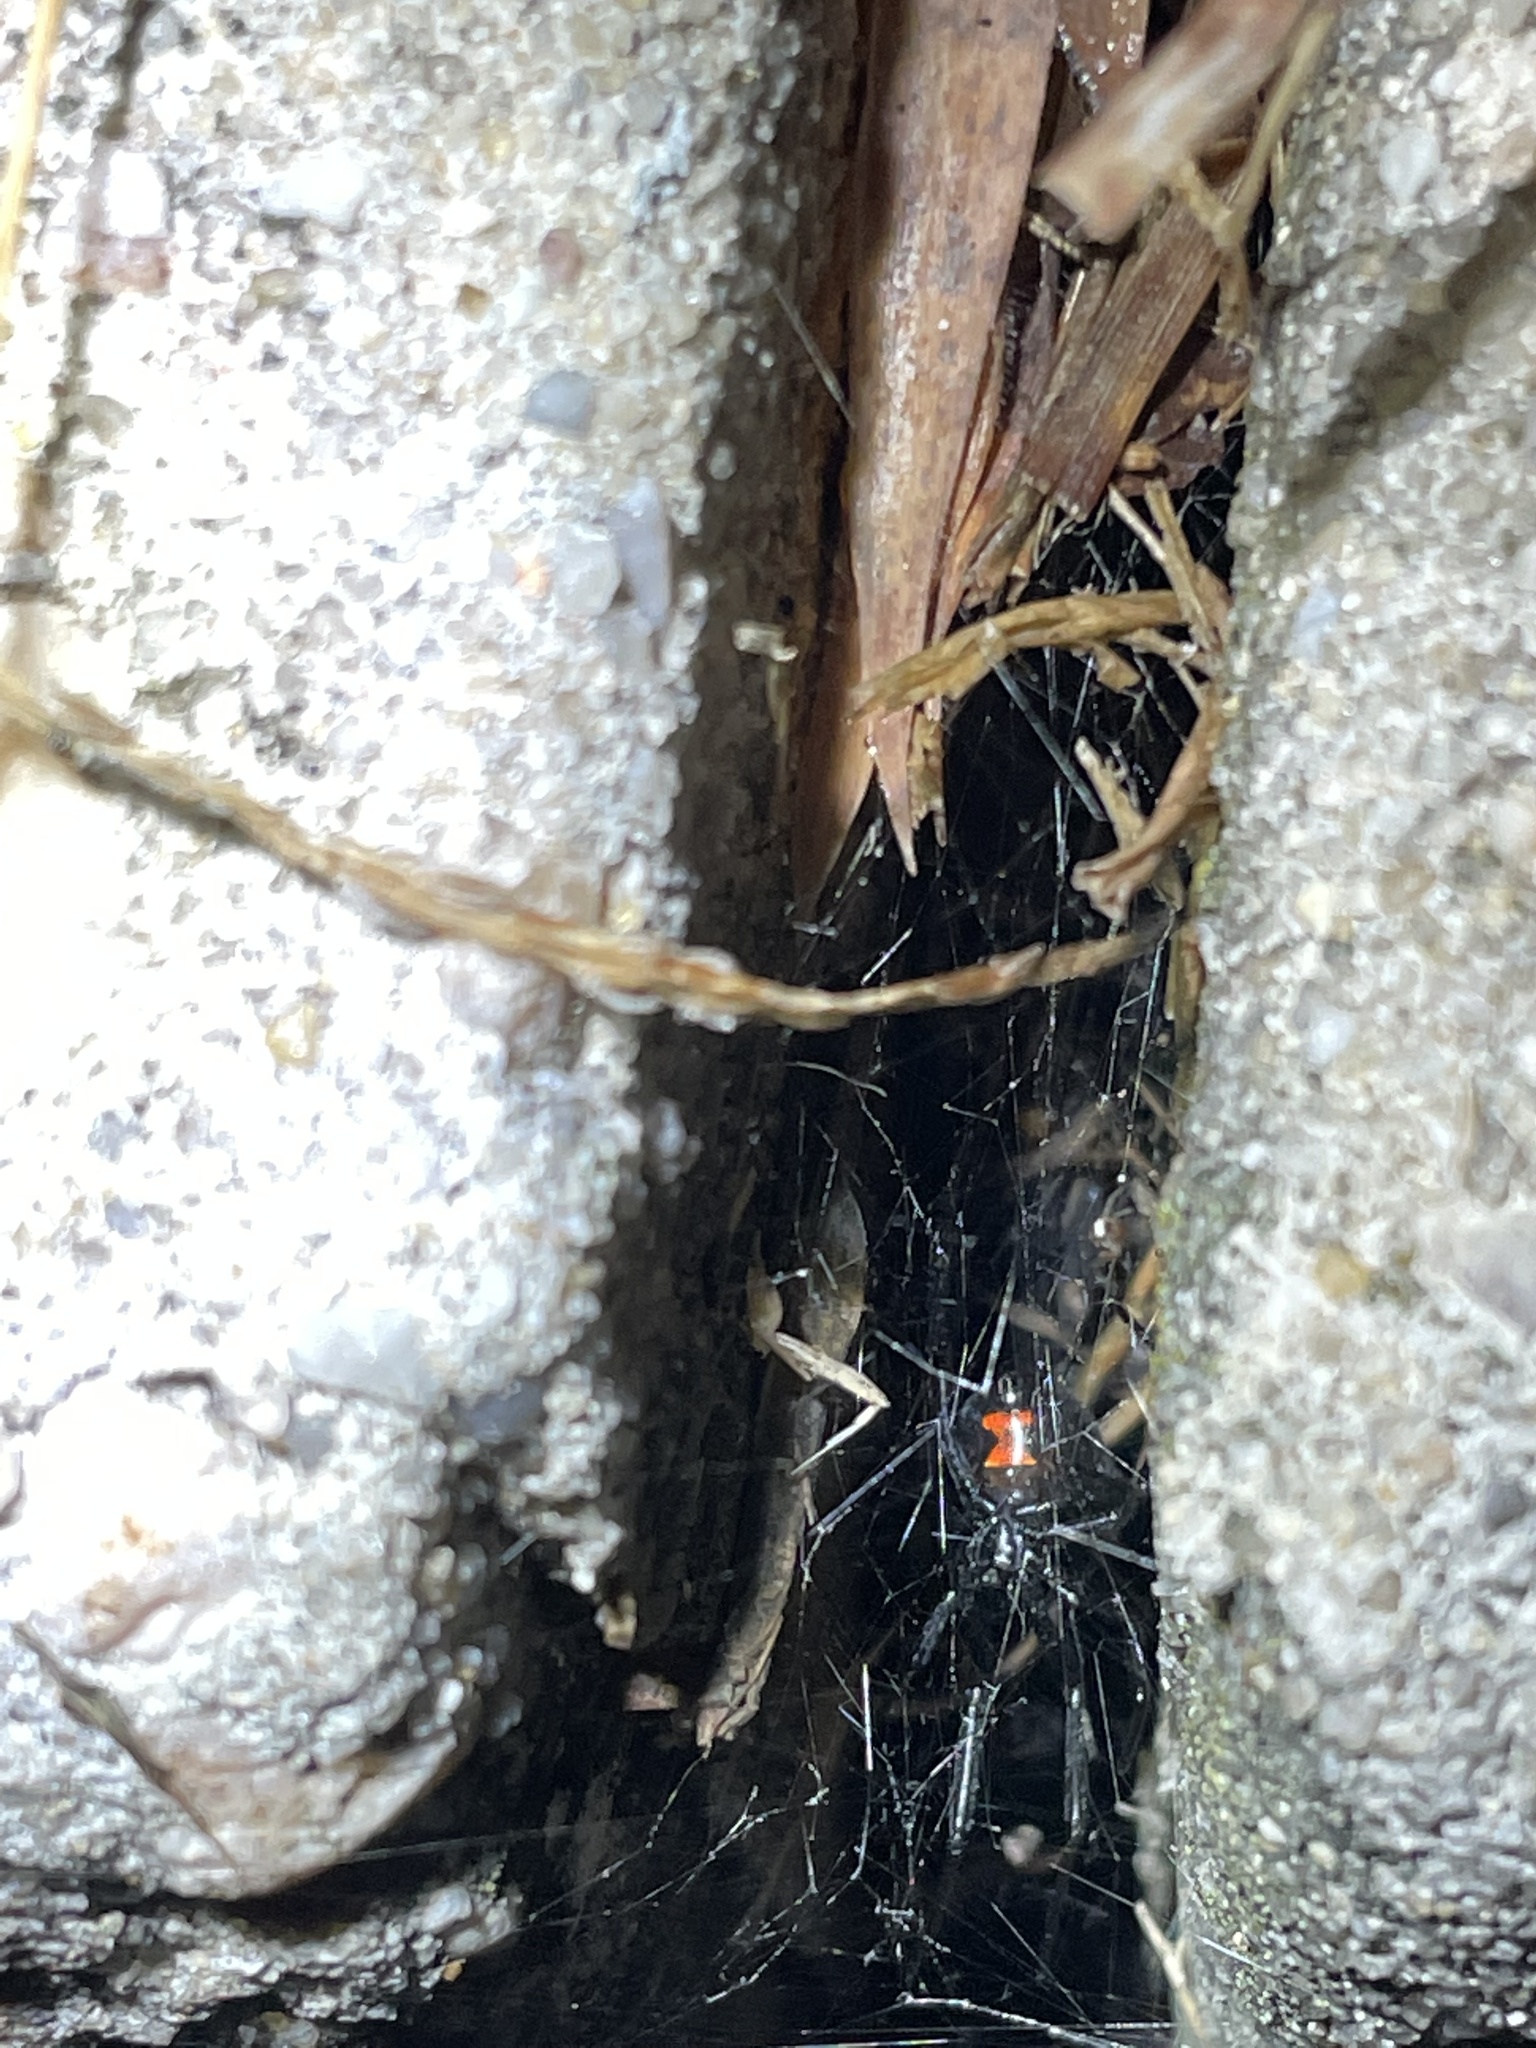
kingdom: Animalia
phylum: Arthropoda
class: Arachnida
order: Araneae
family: Theridiidae
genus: Latrodectus
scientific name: Latrodectus mactans
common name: Cobweb spiders
